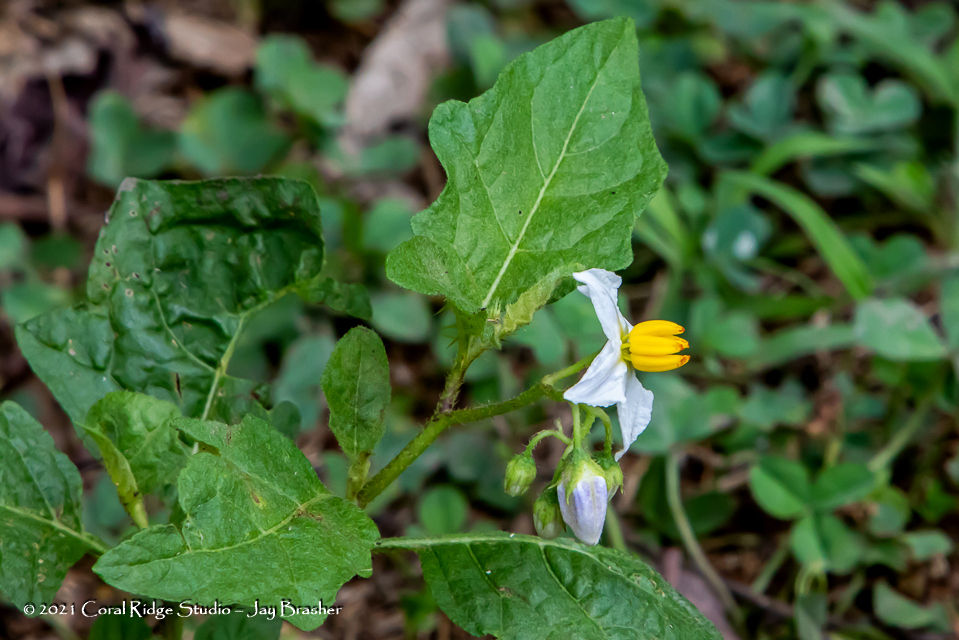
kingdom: Plantae
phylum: Tracheophyta
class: Magnoliopsida
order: Solanales
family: Solanaceae
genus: Solanum
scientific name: Solanum carolinense
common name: Horse-nettle
